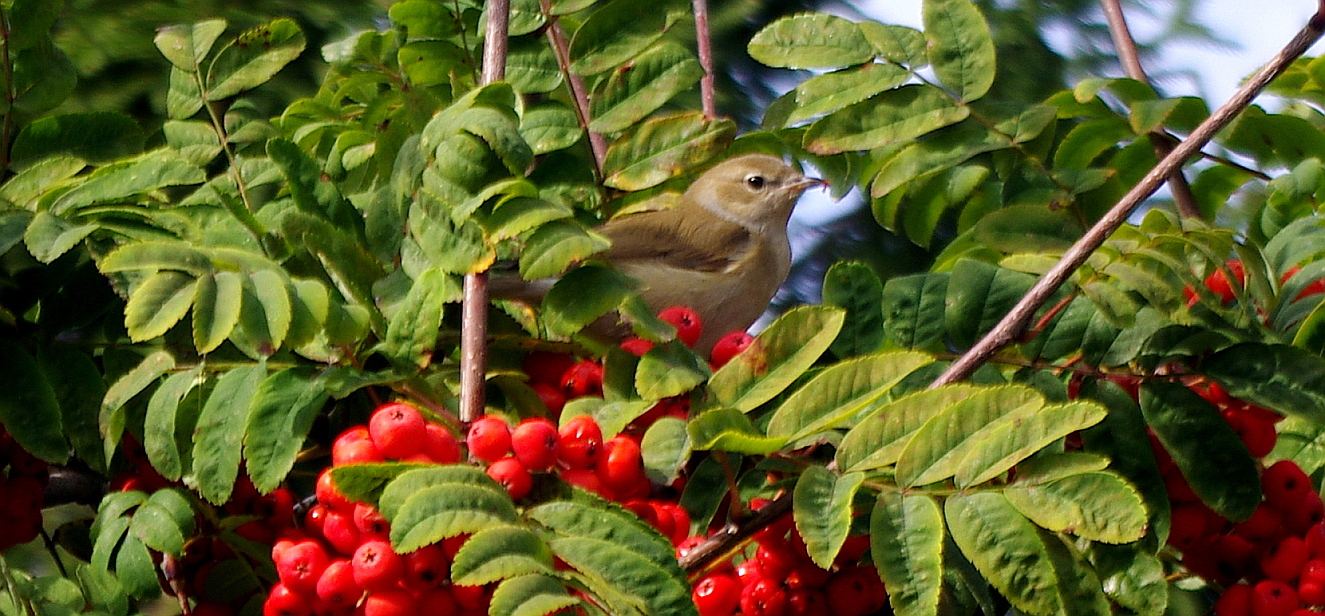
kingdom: Animalia
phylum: Chordata
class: Aves
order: Passeriformes
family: Sylviidae
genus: Sylvia
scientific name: Sylvia borin
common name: Garden warbler
